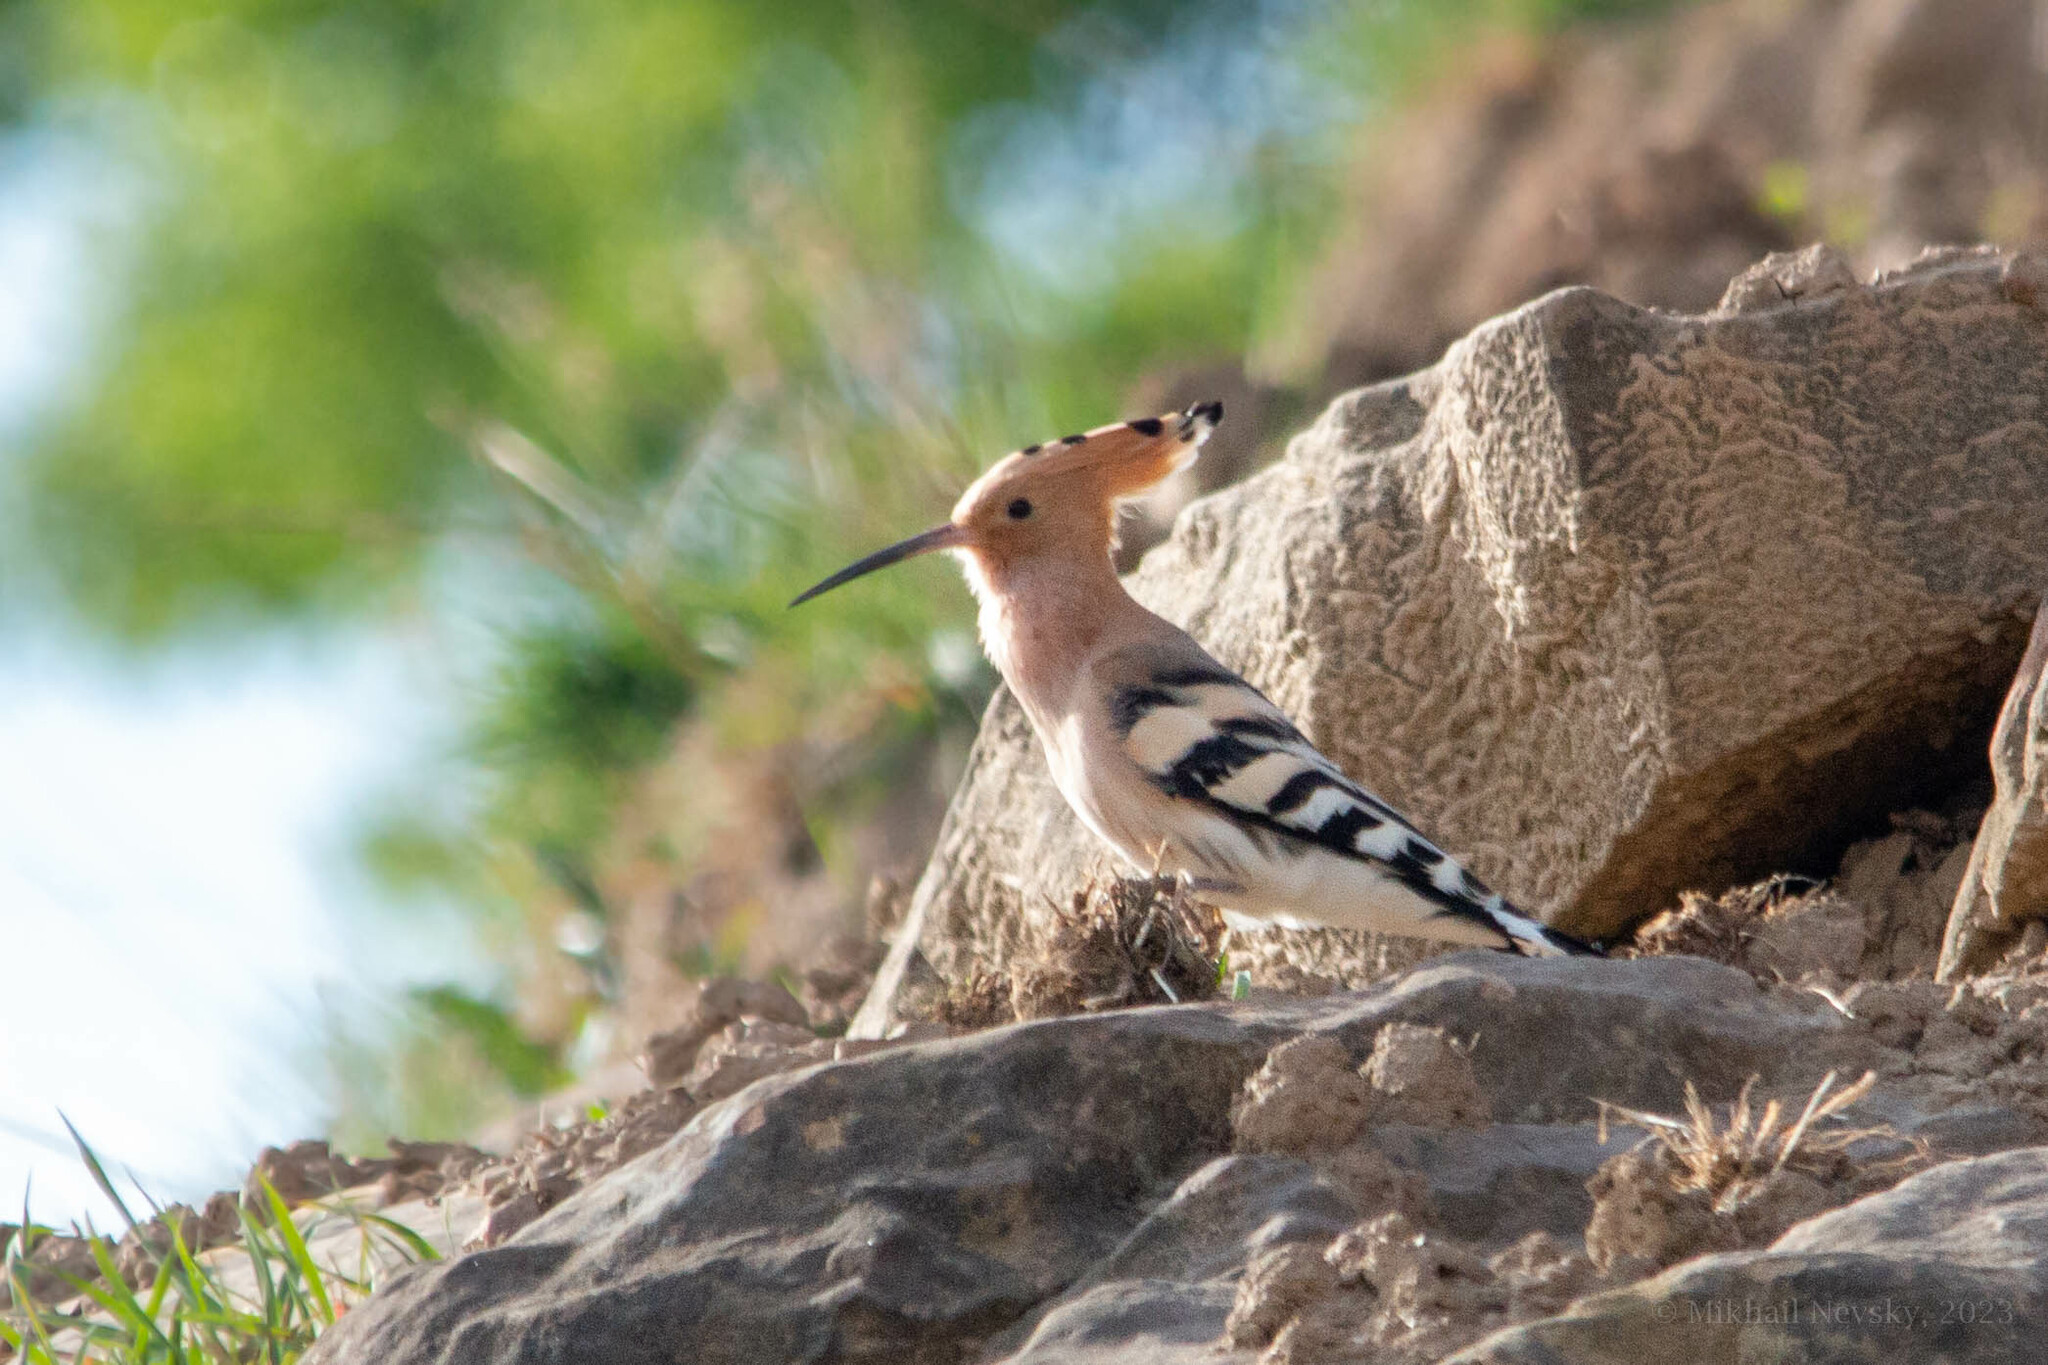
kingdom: Animalia
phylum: Chordata
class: Aves
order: Bucerotiformes
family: Upupidae
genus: Upupa
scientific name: Upupa epops
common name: Eurasian hoopoe
